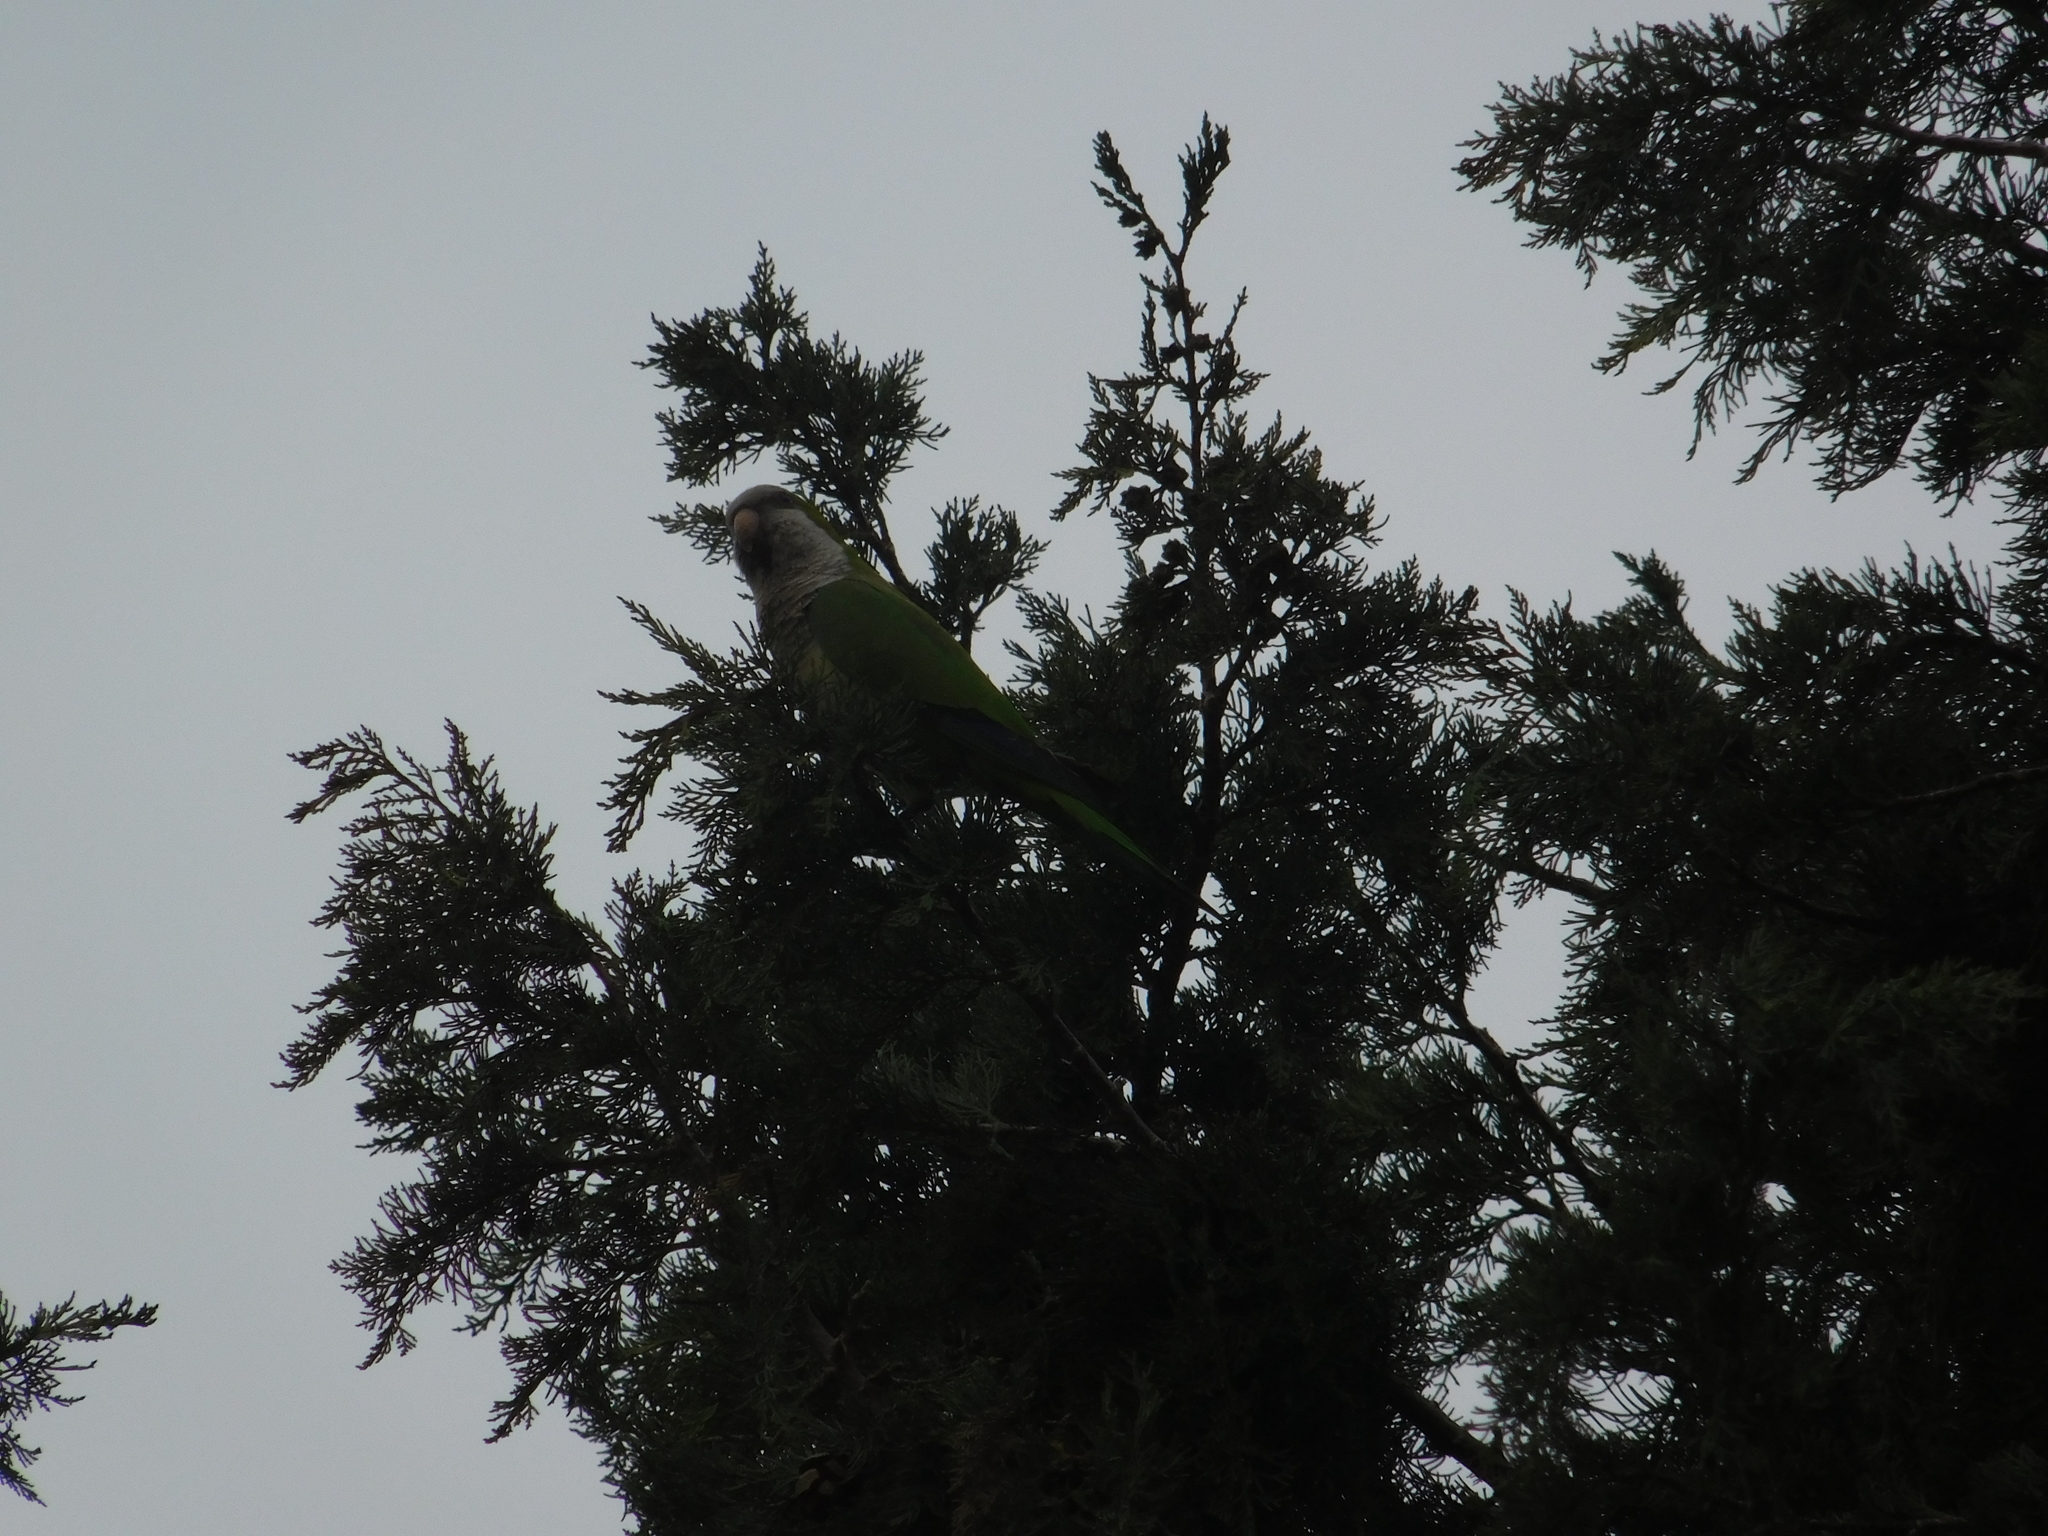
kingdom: Animalia
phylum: Chordata
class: Aves
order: Psittaciformes
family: Psittacidae
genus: Myiopsitta
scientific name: Myiopsitta monachus
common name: Monk parakeet
